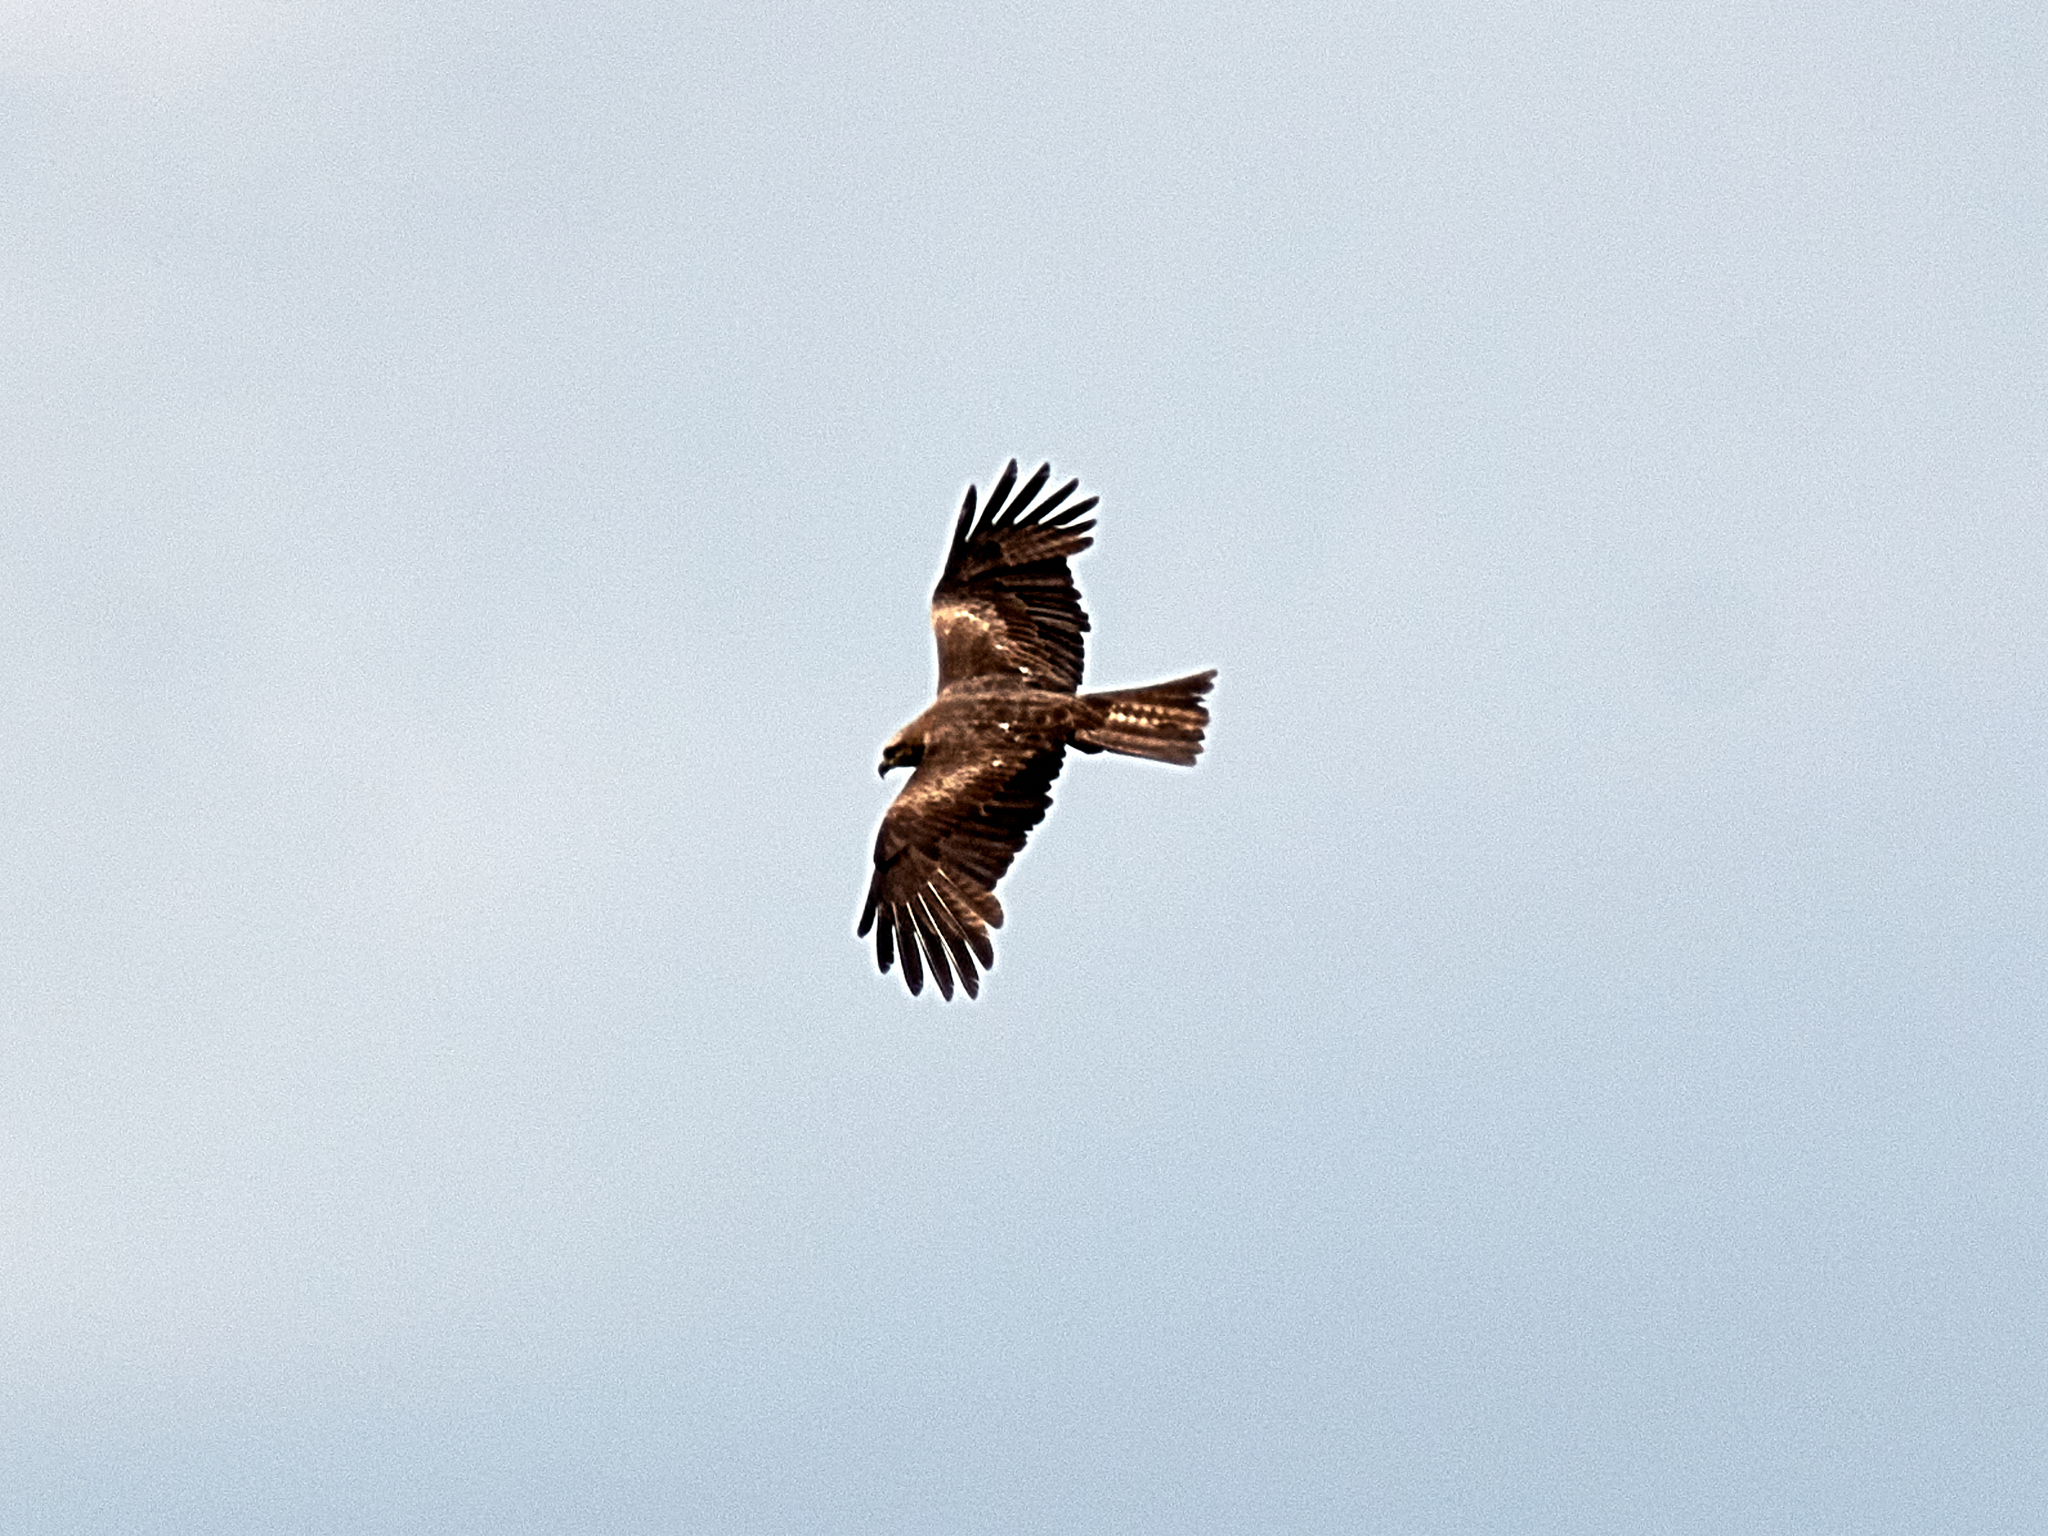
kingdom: Animalia
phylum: Chordata
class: Aves
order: Accipitriformes
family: Accipitridae
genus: Milvus
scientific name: Milvus migrans
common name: Black kite
